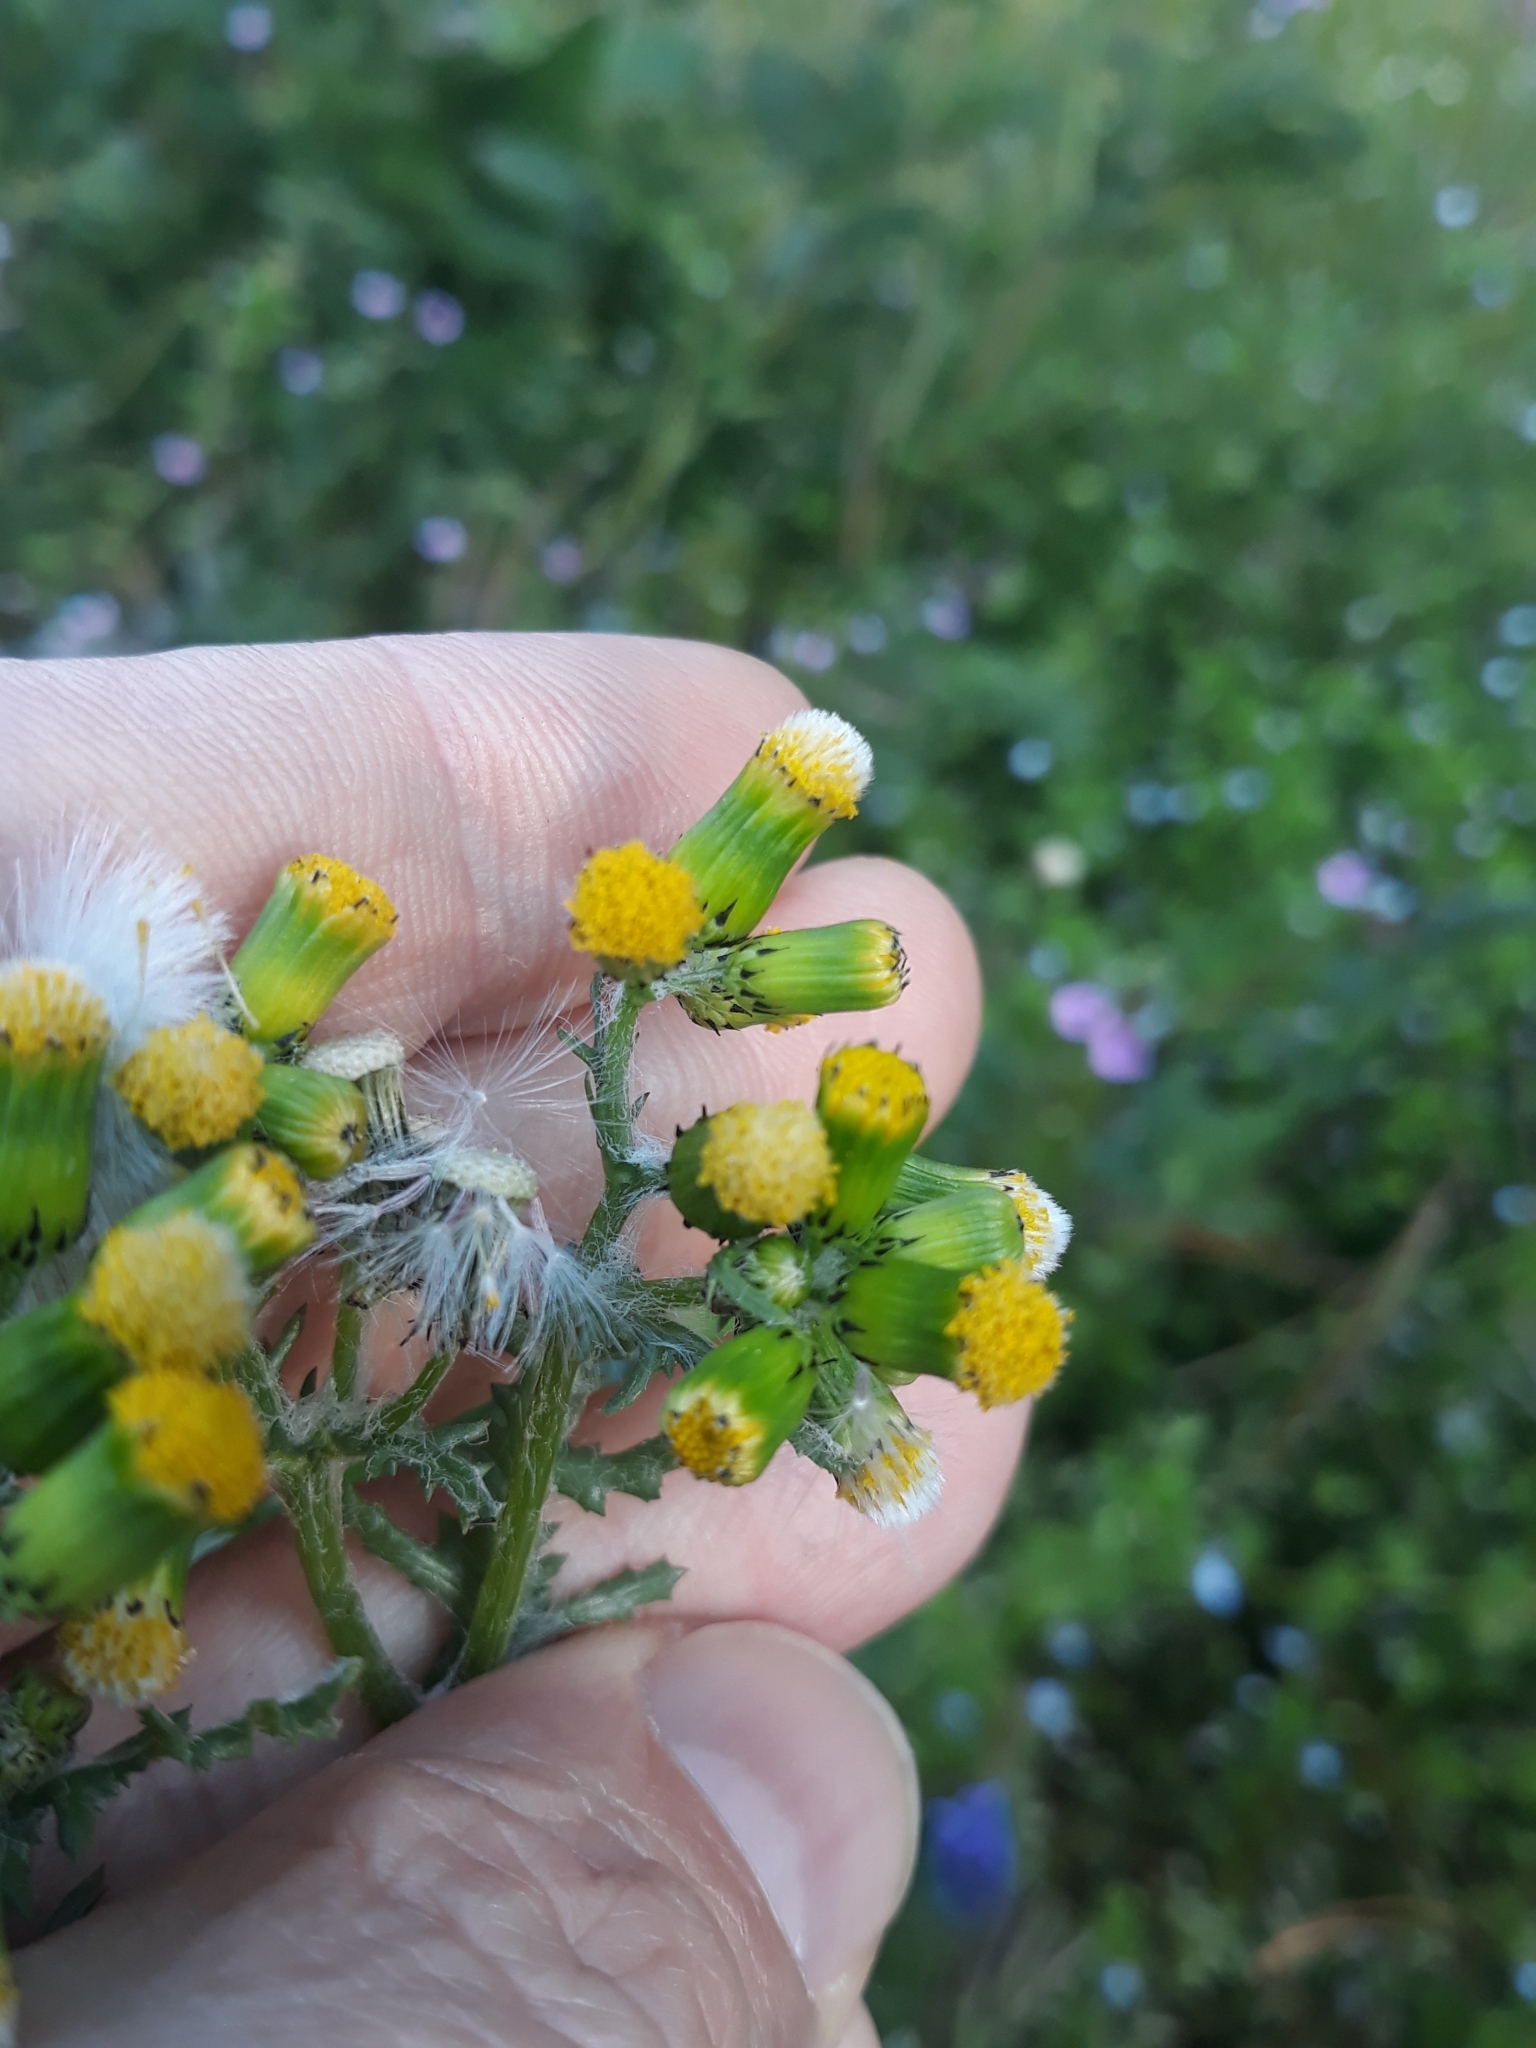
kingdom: Plantae
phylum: Tracheophyta
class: Magnoliopsida
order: Asterales
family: Asteraceae
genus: Senecio
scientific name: Senecio vulgaris
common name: Old-man-in-the-spring
